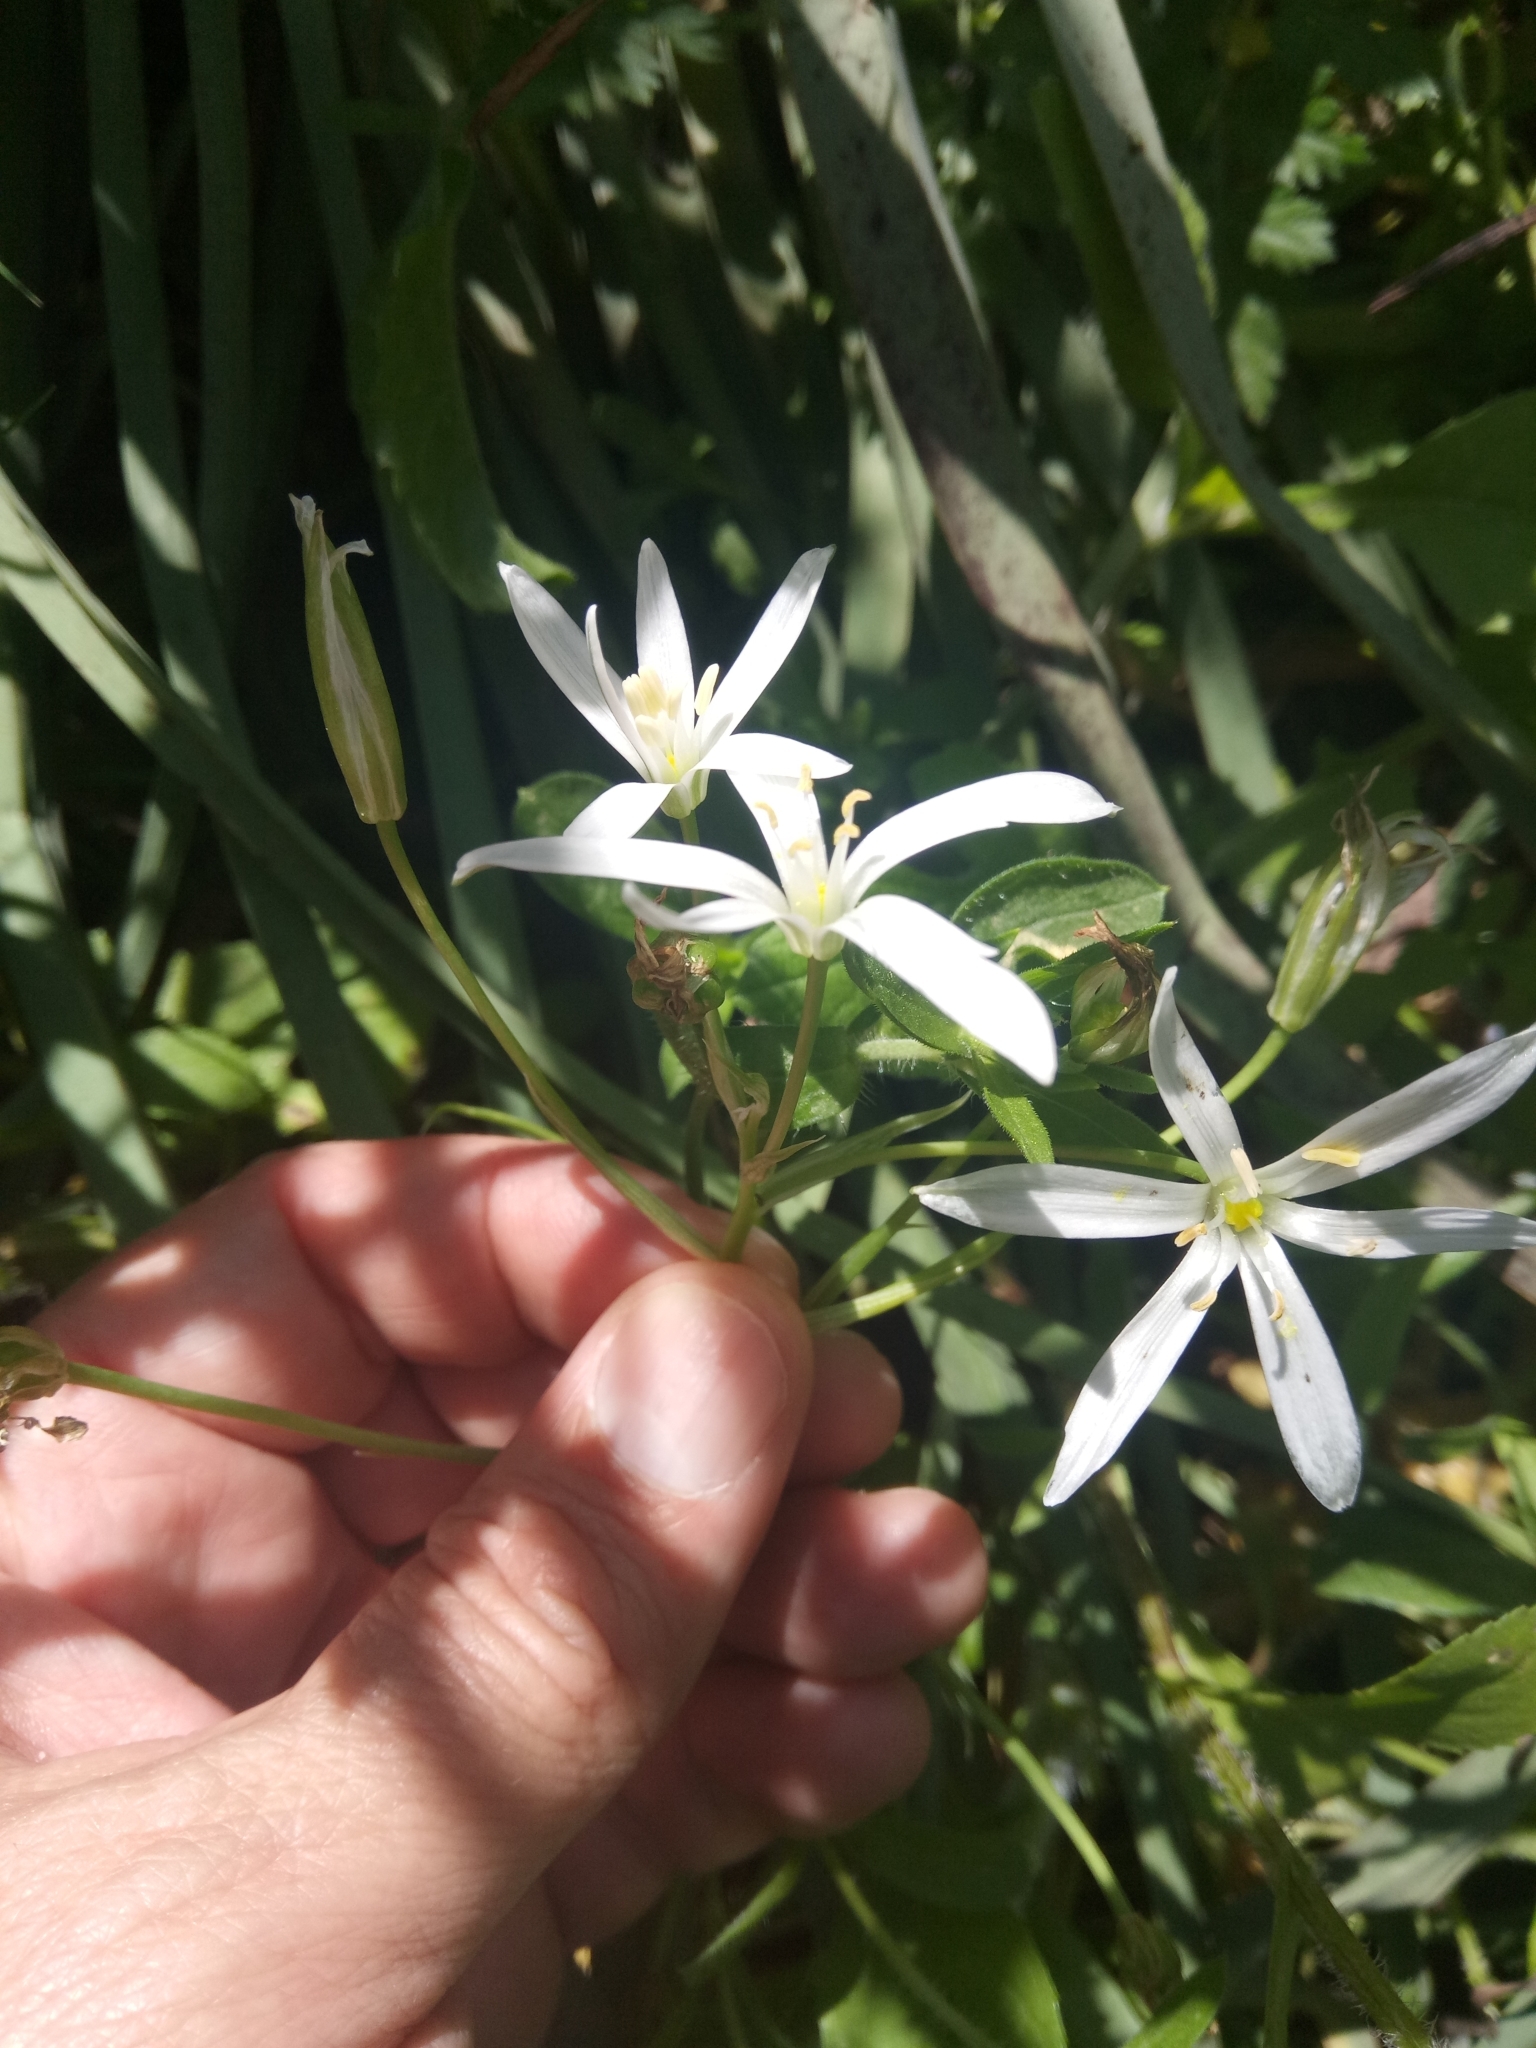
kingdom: Plantae
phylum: Tracheophyta
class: Liliopsida
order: Asparagales
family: Asparagaceae
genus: Ornithogalum
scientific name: Ornithogalum baeticum
